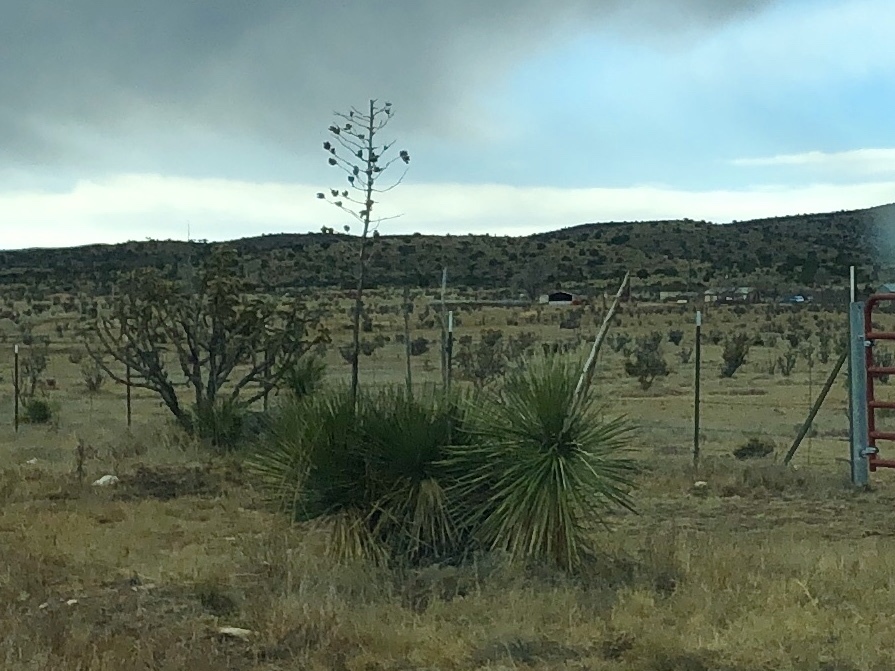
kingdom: Plantae
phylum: Tracheophyta
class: Liliopsida
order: Asparagales
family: Asparagaceae
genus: Yucca
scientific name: Yucca elata
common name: Palmella
